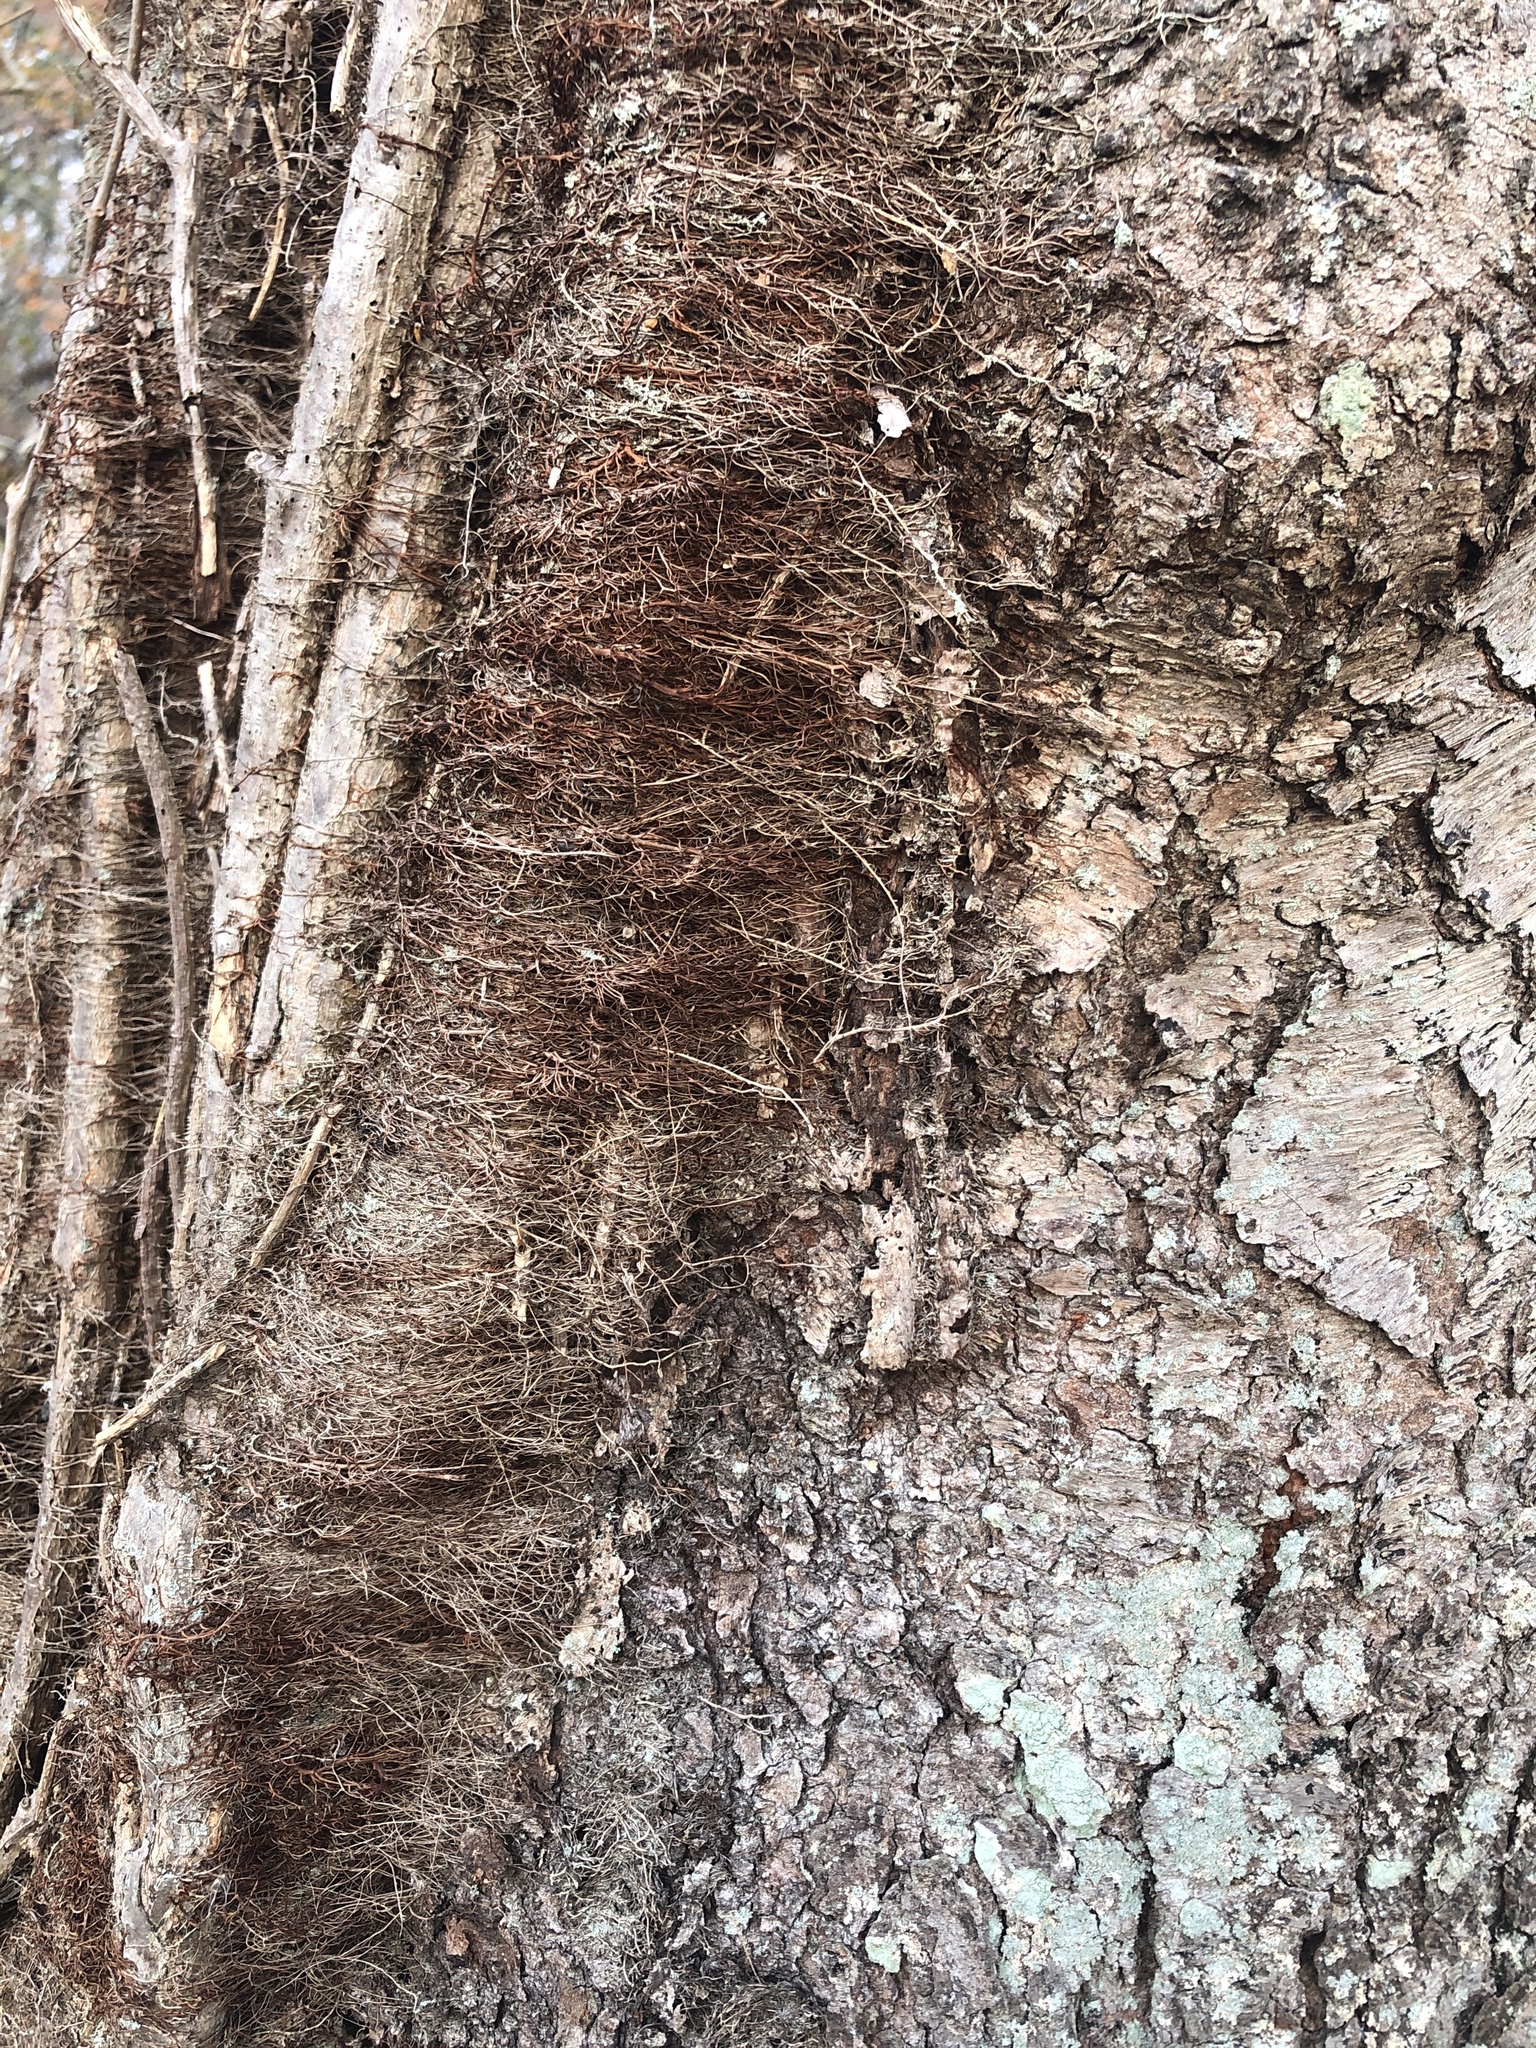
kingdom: Plantae
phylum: Tracheophyta
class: Magnoliopsida
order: Sapindales
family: Anacardiaceae
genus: Toxicodendron
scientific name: Toxicodendron radicans
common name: Poison ivy
